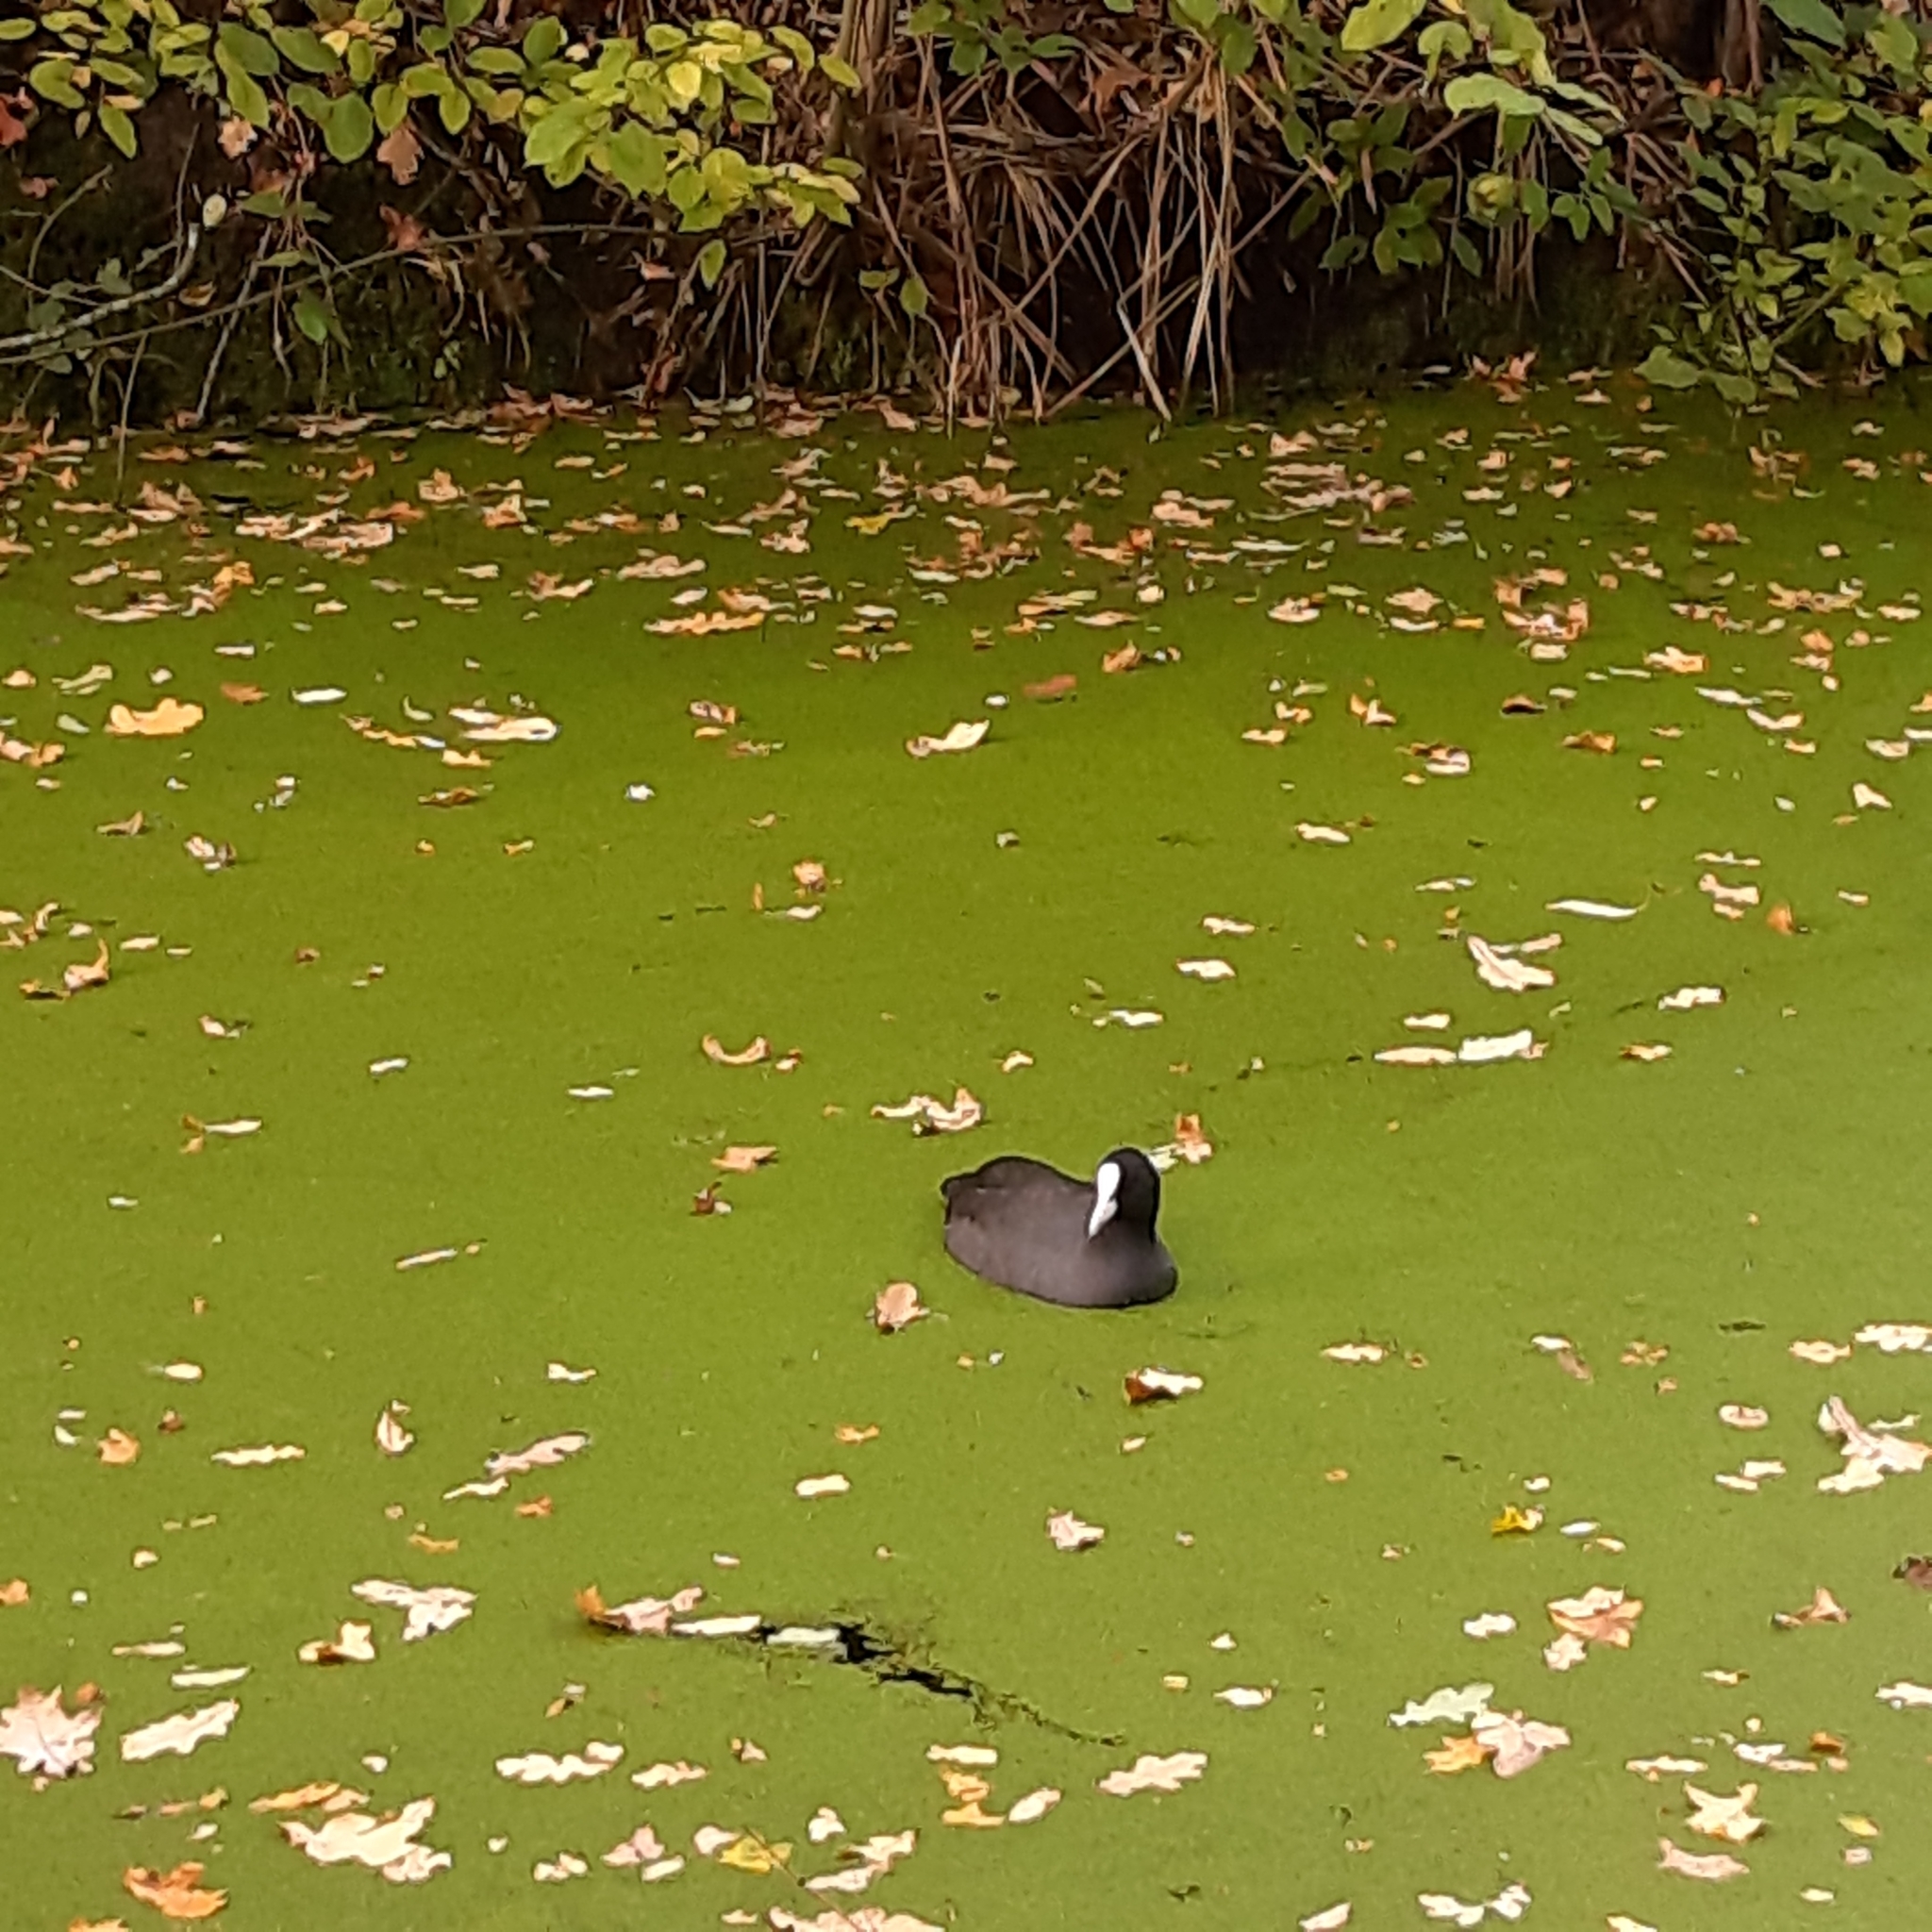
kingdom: Animalia
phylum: Chordata
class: Aves
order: Gruiformes
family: Rallidae
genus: Fulica
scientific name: Fulica atra
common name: Eurasian coot
